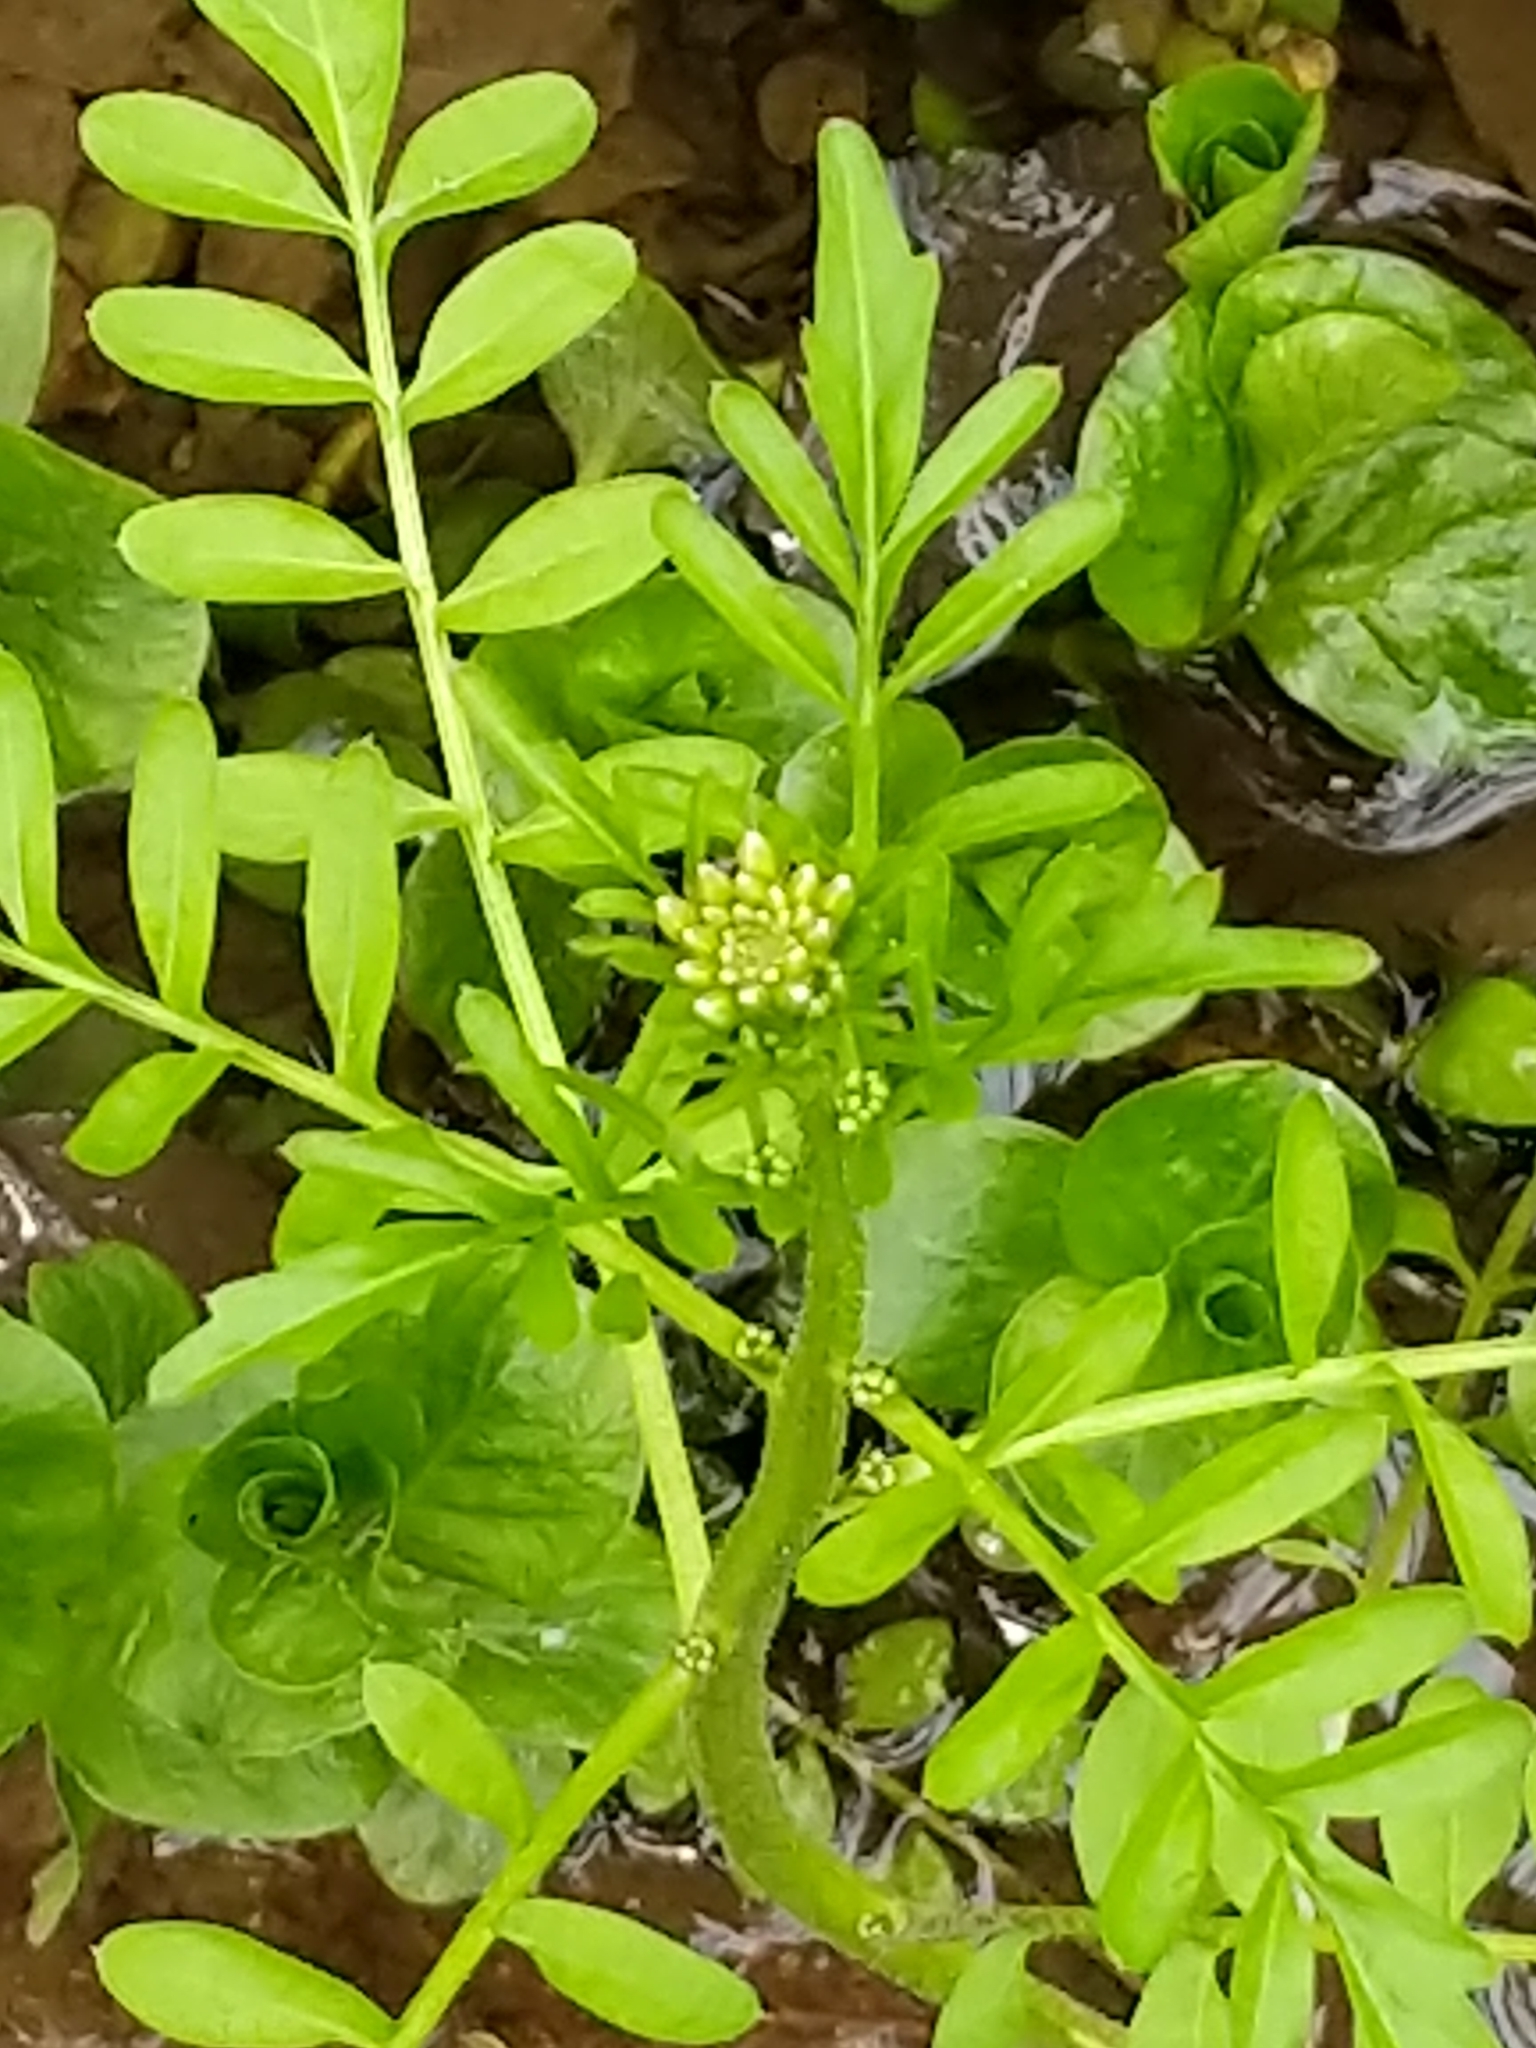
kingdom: Plantae
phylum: Tracheophyta
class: Magnoliopsida
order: Brassicales
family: Brassicaceae
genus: Cardamine
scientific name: Cardamine pensylvanica
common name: Pennsylvania bittercress
